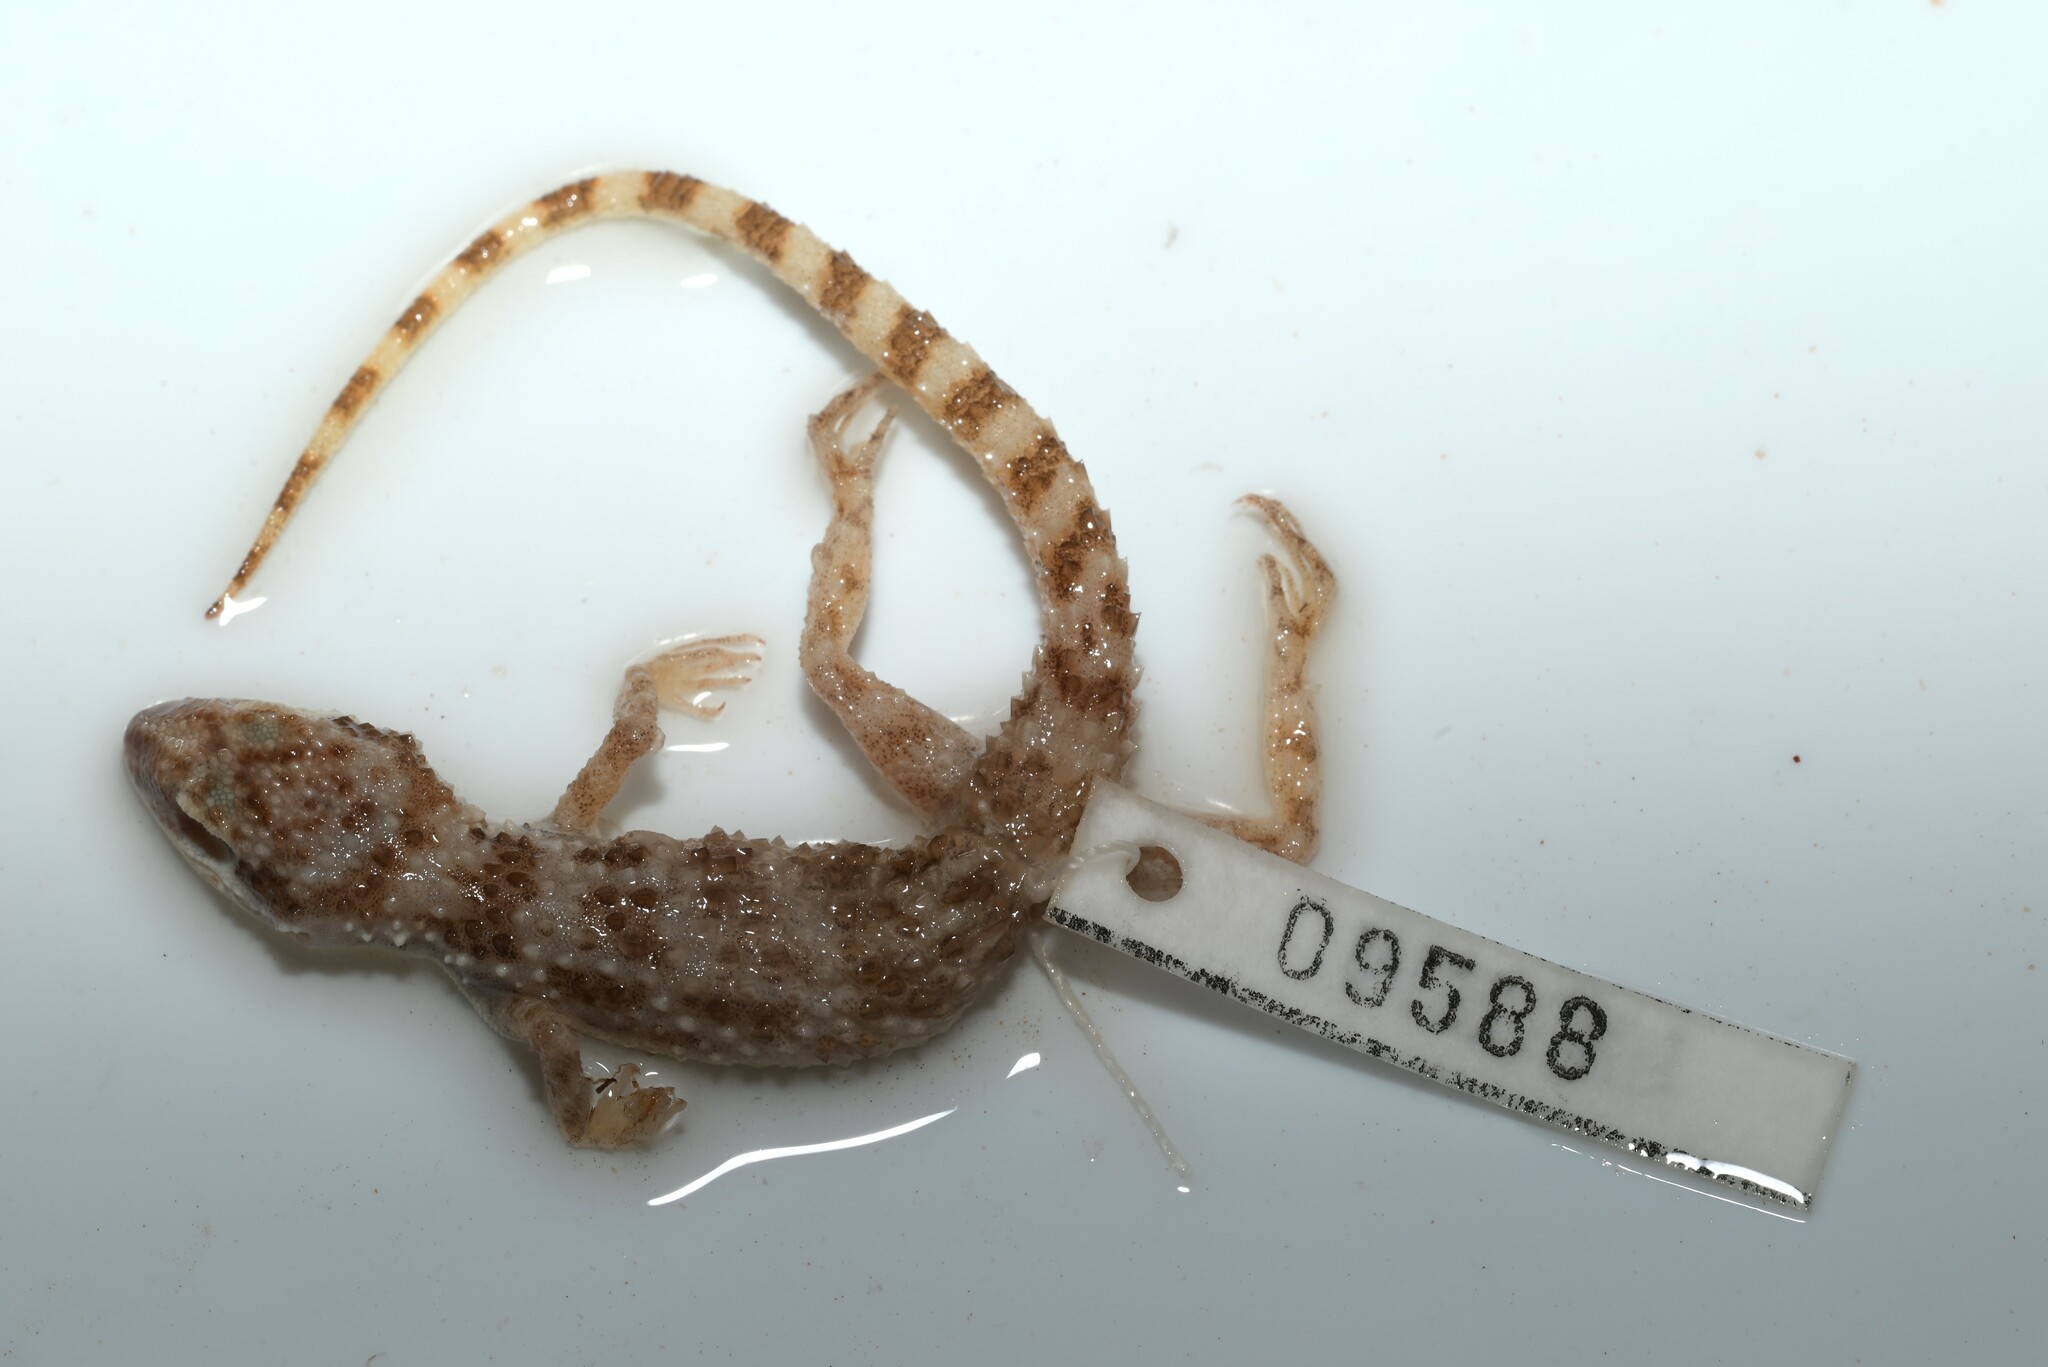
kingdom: Animalia
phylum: Chordata
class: Squamata
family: Gekkonidae
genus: Bunopus
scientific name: Bunopus tuberculatus
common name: Southern tuberculated gecko
